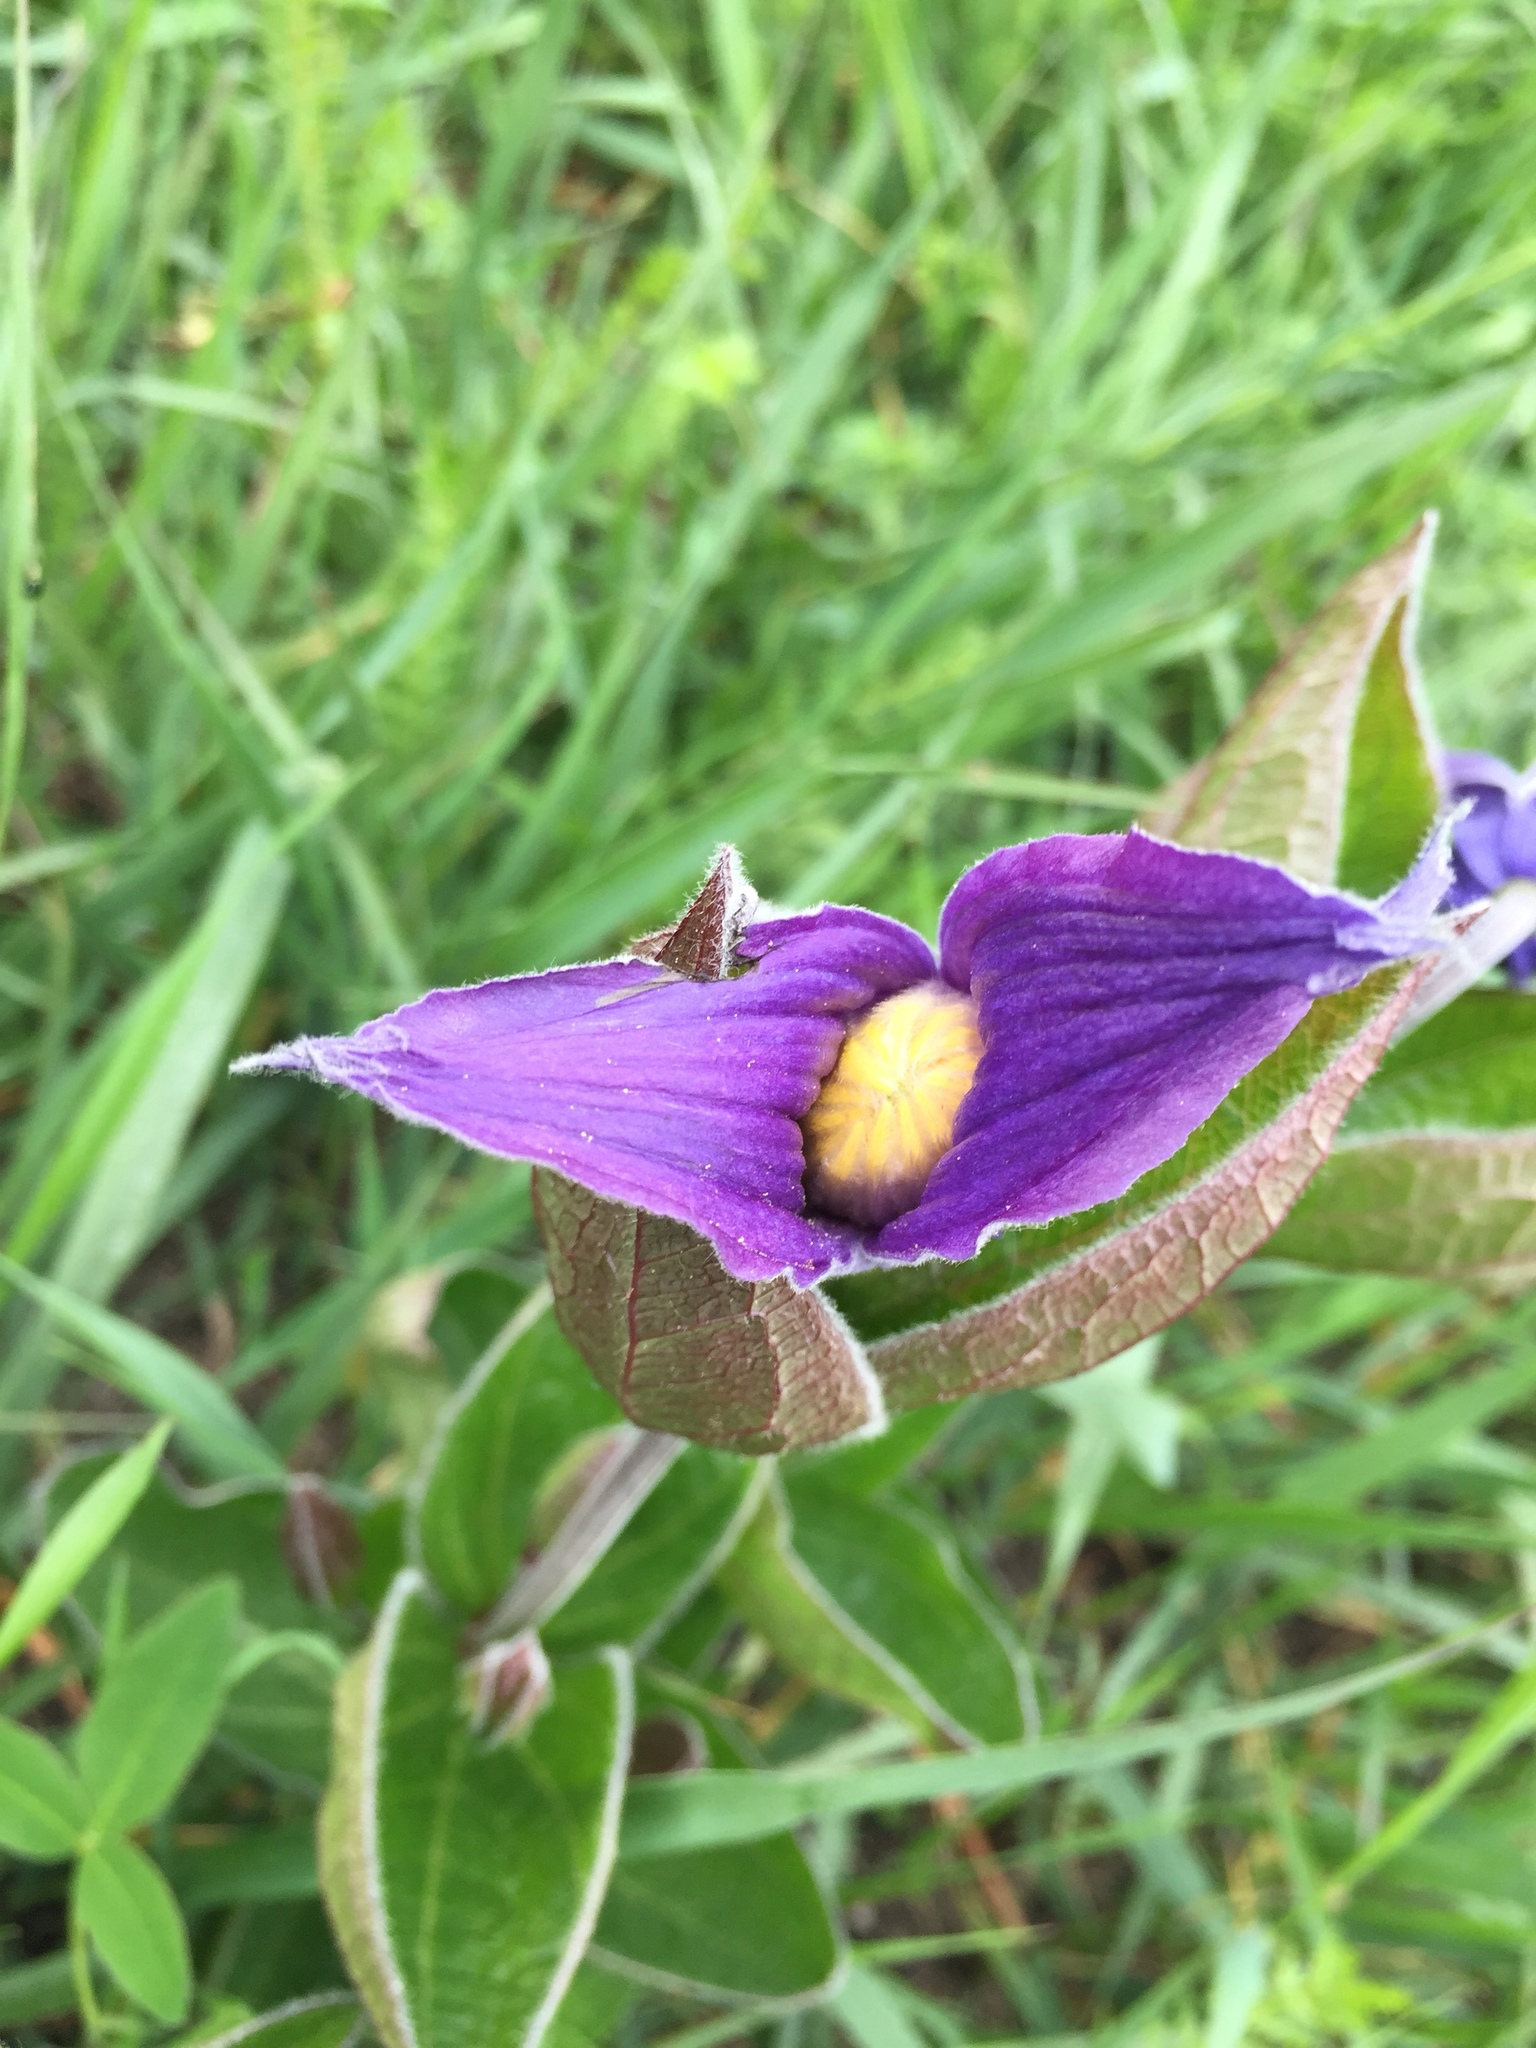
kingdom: Plantae
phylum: Tracheophyta
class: Magnoliopsida
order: Ranunculales
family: Ranunculaceae
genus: Clematis
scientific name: Clematis integrifolia
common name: Solitary clematis
